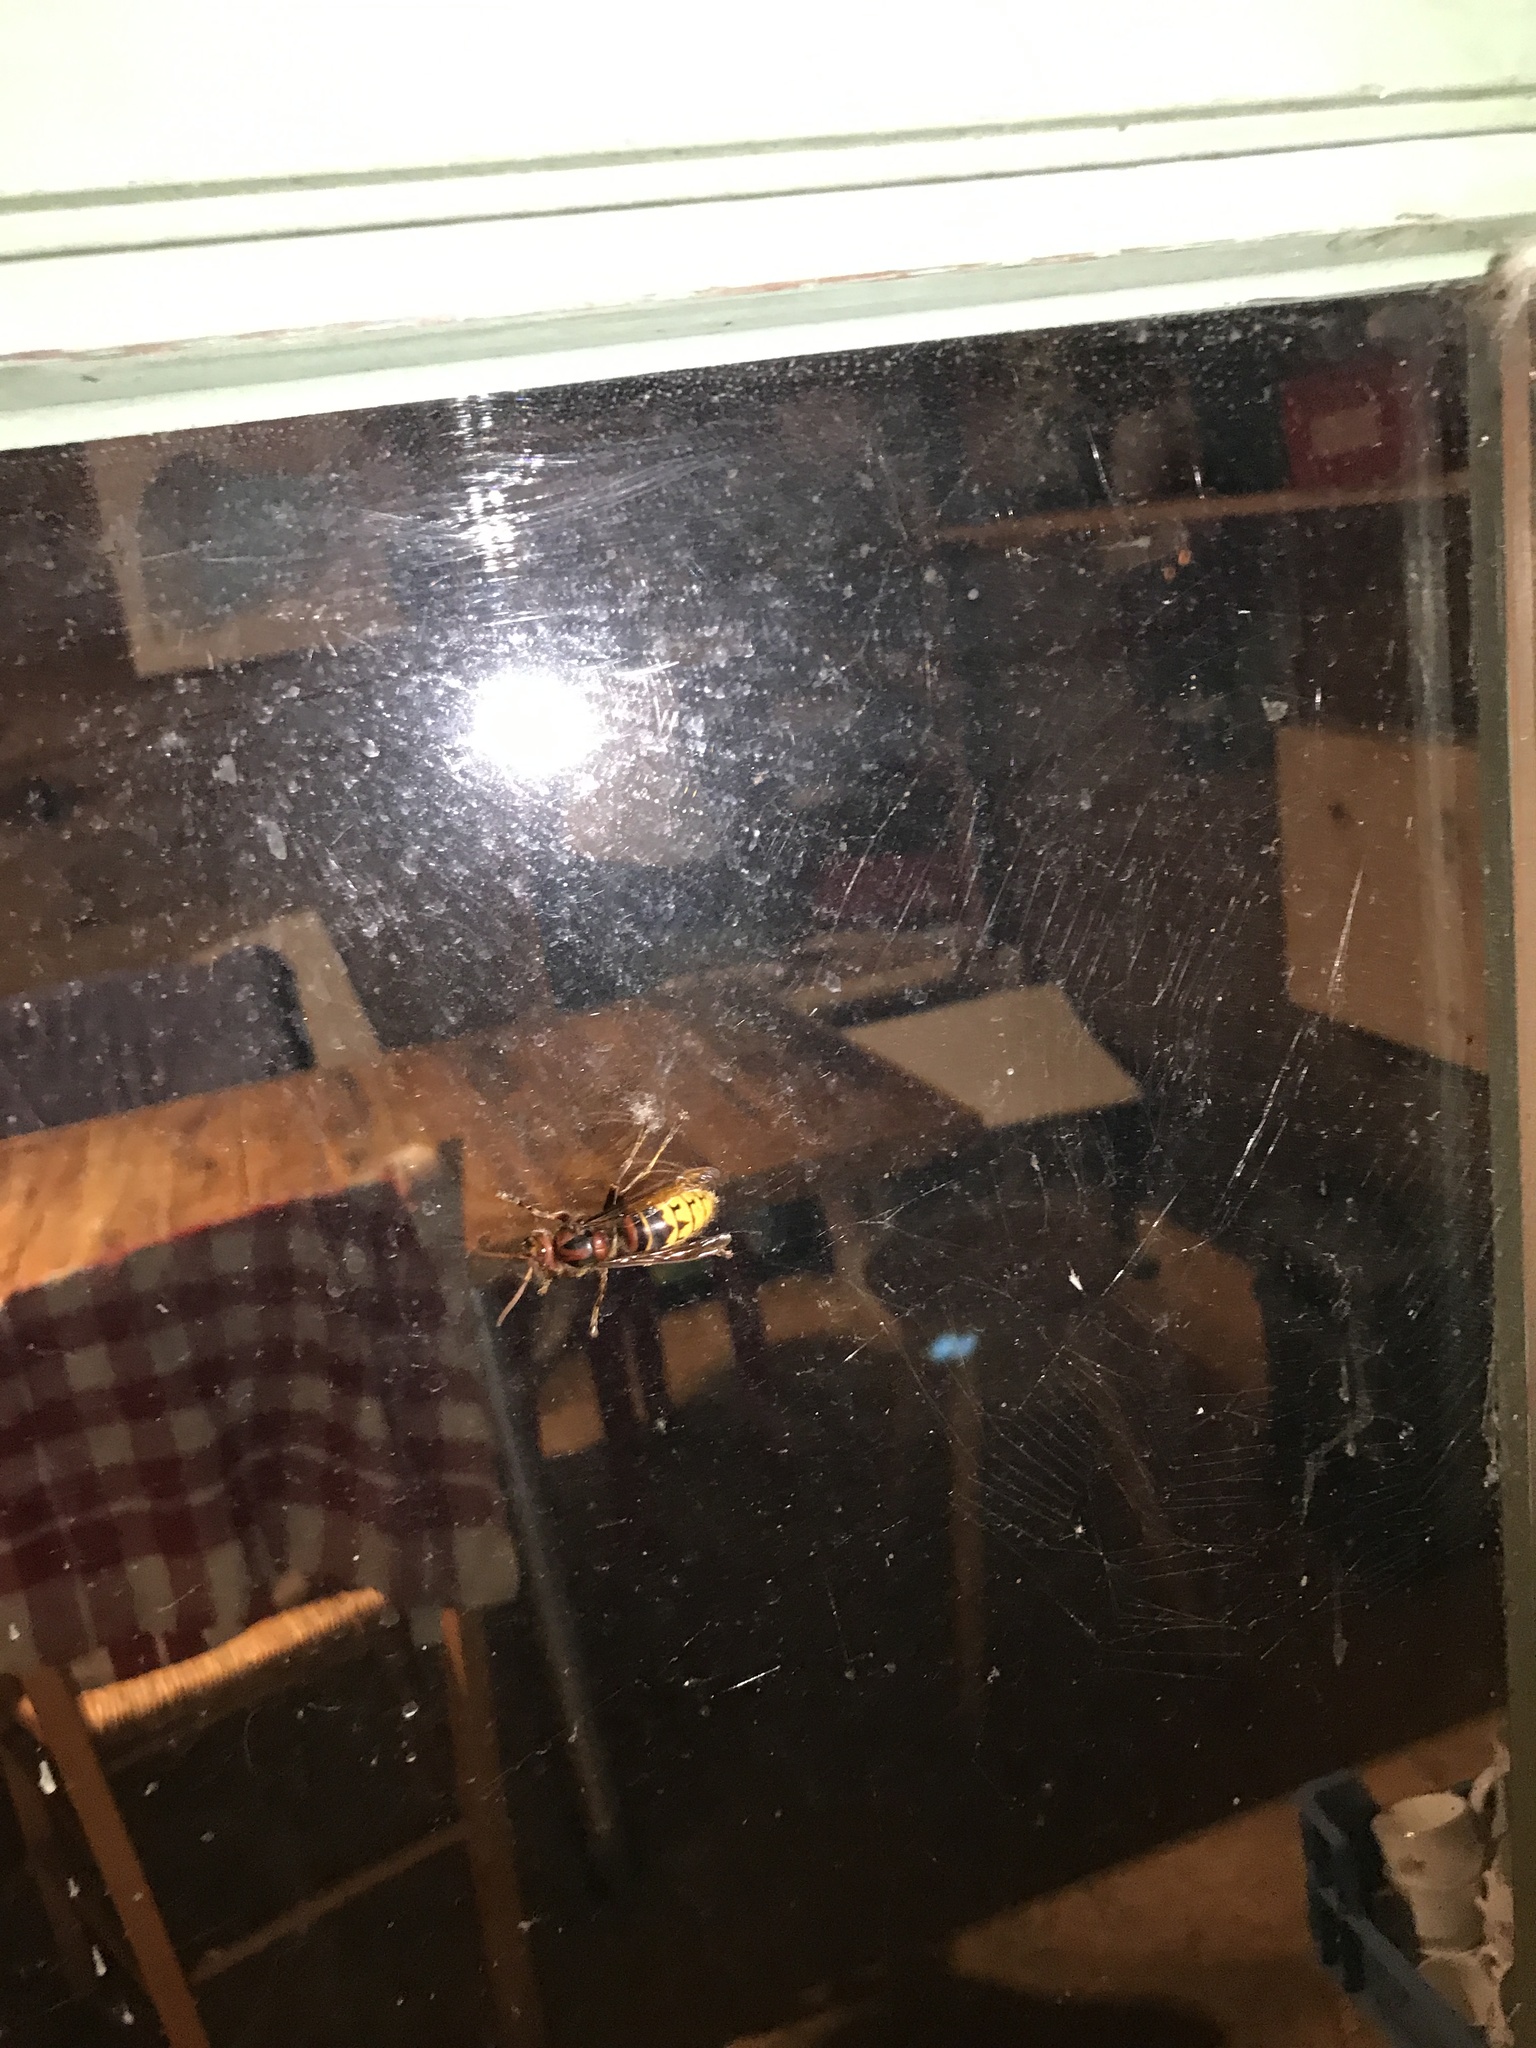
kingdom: Animalia
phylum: Arthropoda
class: Insecta
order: Hymenoptera
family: Vespidae
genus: Vespa
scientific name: Vespa crabro
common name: Hornet
